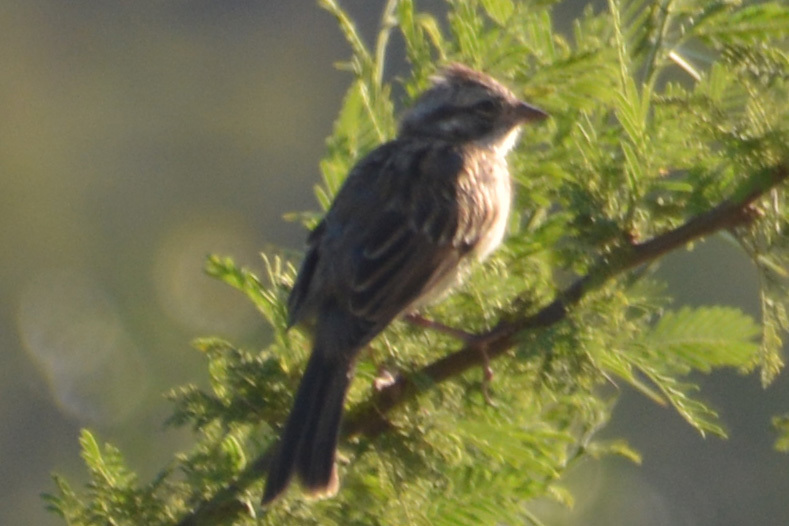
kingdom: Animalia
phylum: Chordata
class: Aves
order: Passeriformes
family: Passerellidae
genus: Zonotrichia
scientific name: Zonotrichia capensis
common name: Rufous-collared sparrow
